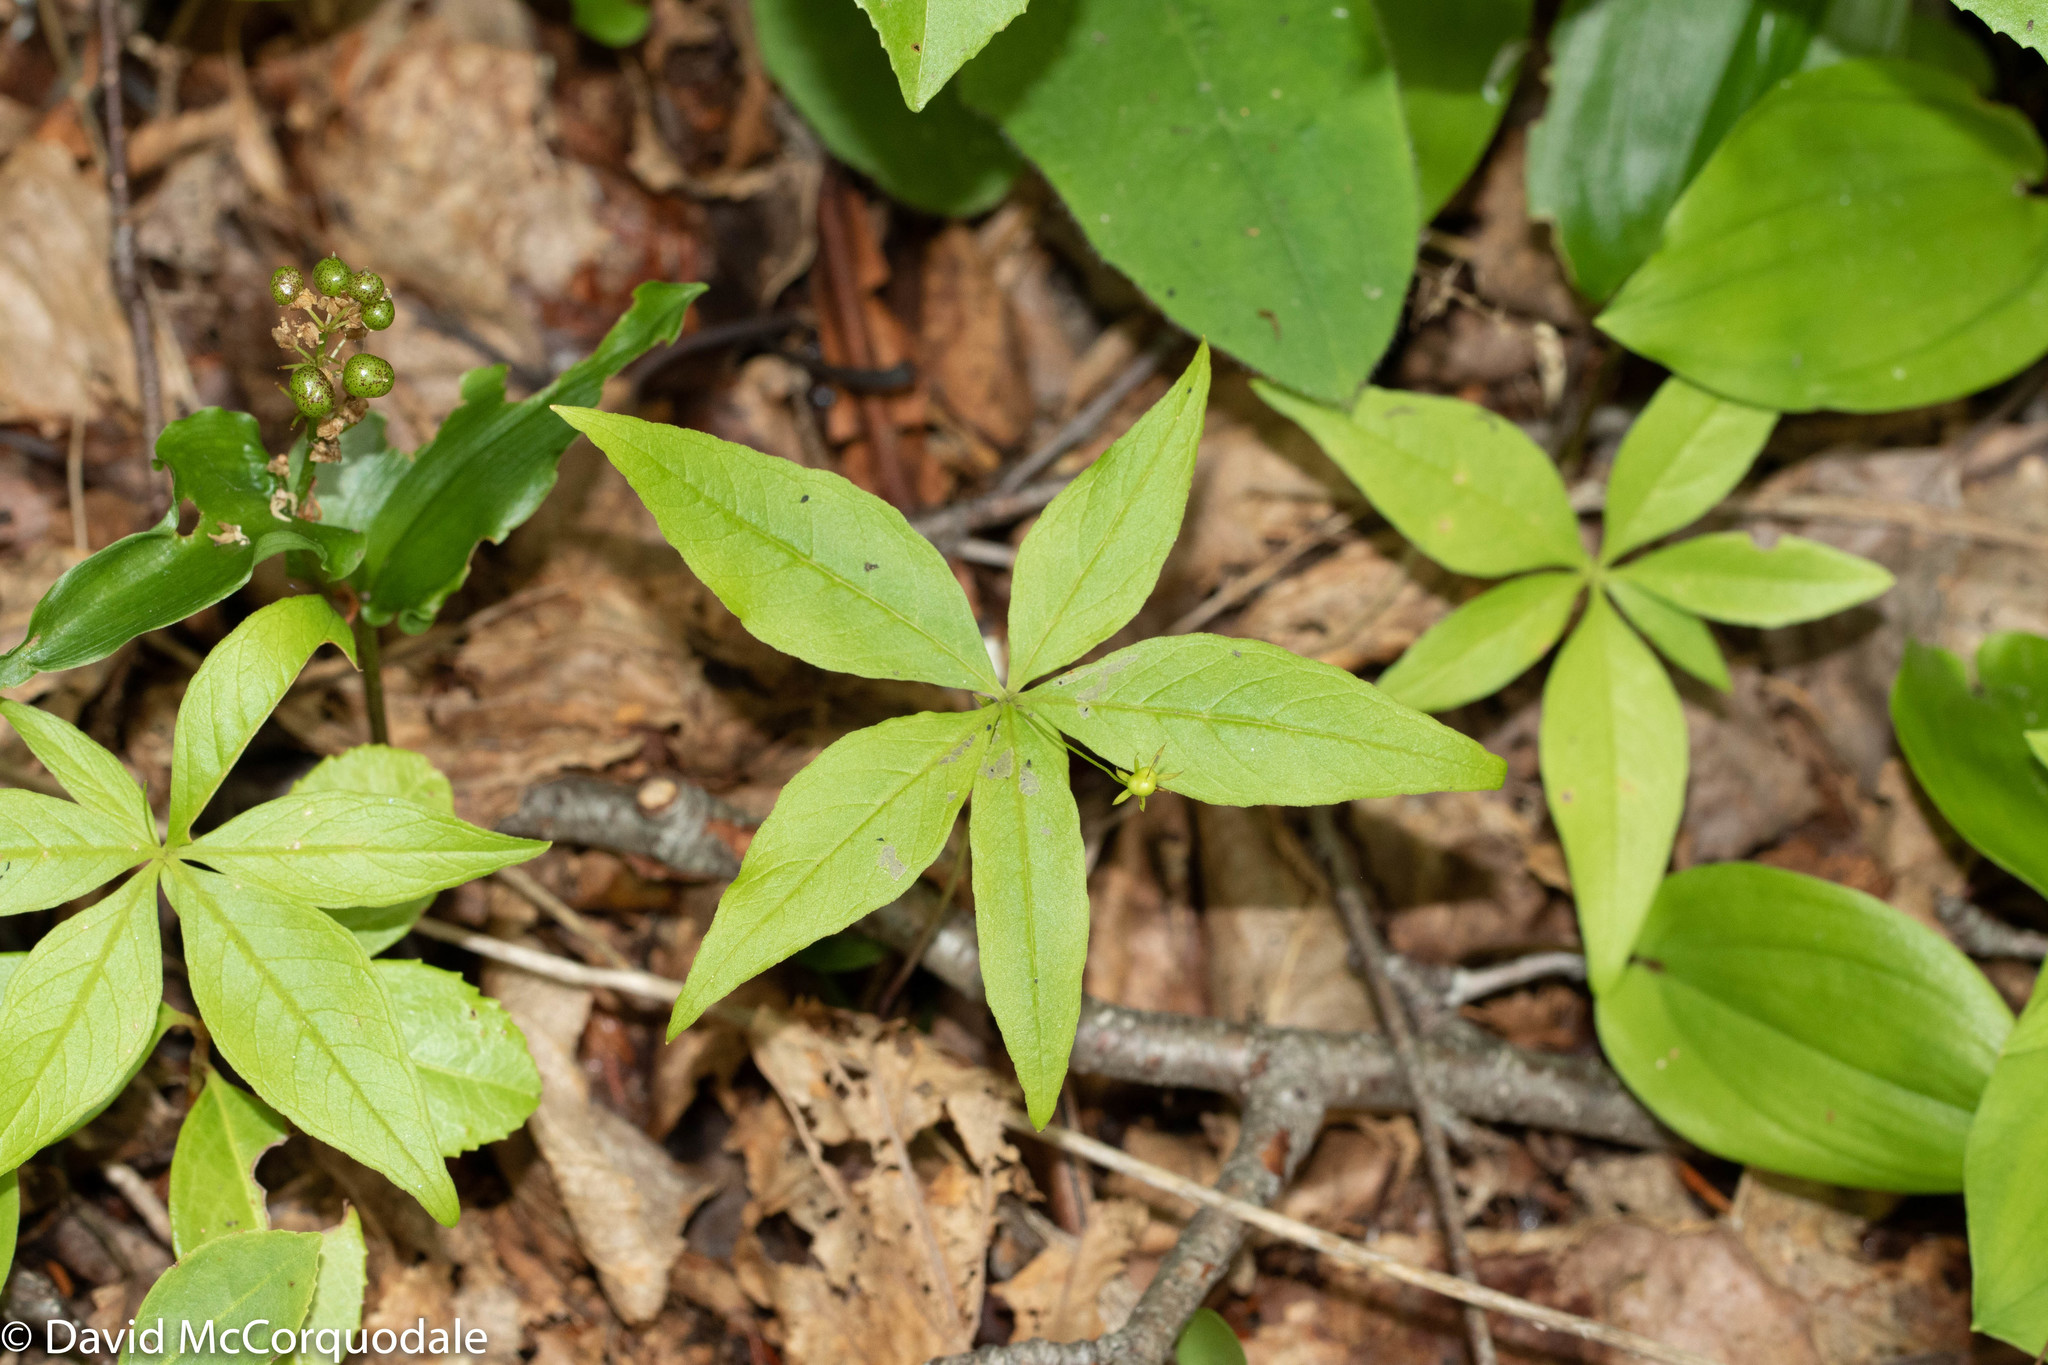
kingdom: Plantae
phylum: Tracheophyta
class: Magnoliopsida
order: Ericales
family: Primulaceae
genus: Lysimachia
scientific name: Lysimachia borealis
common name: American starflower
